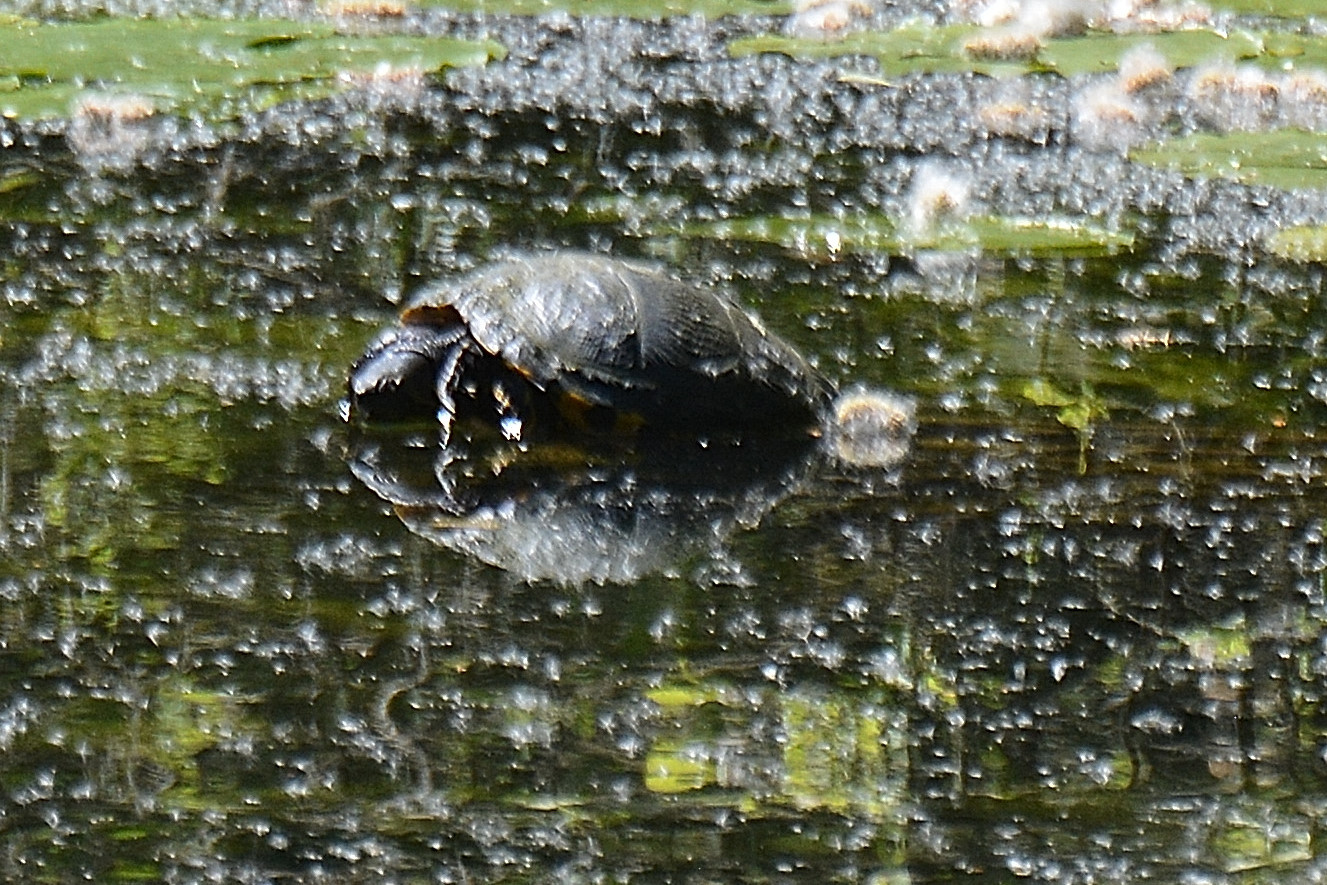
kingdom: Animalia
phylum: Chordata
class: Testudines
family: Emydidae
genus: Trachemys
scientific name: Trachemys scripta
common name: Slider
